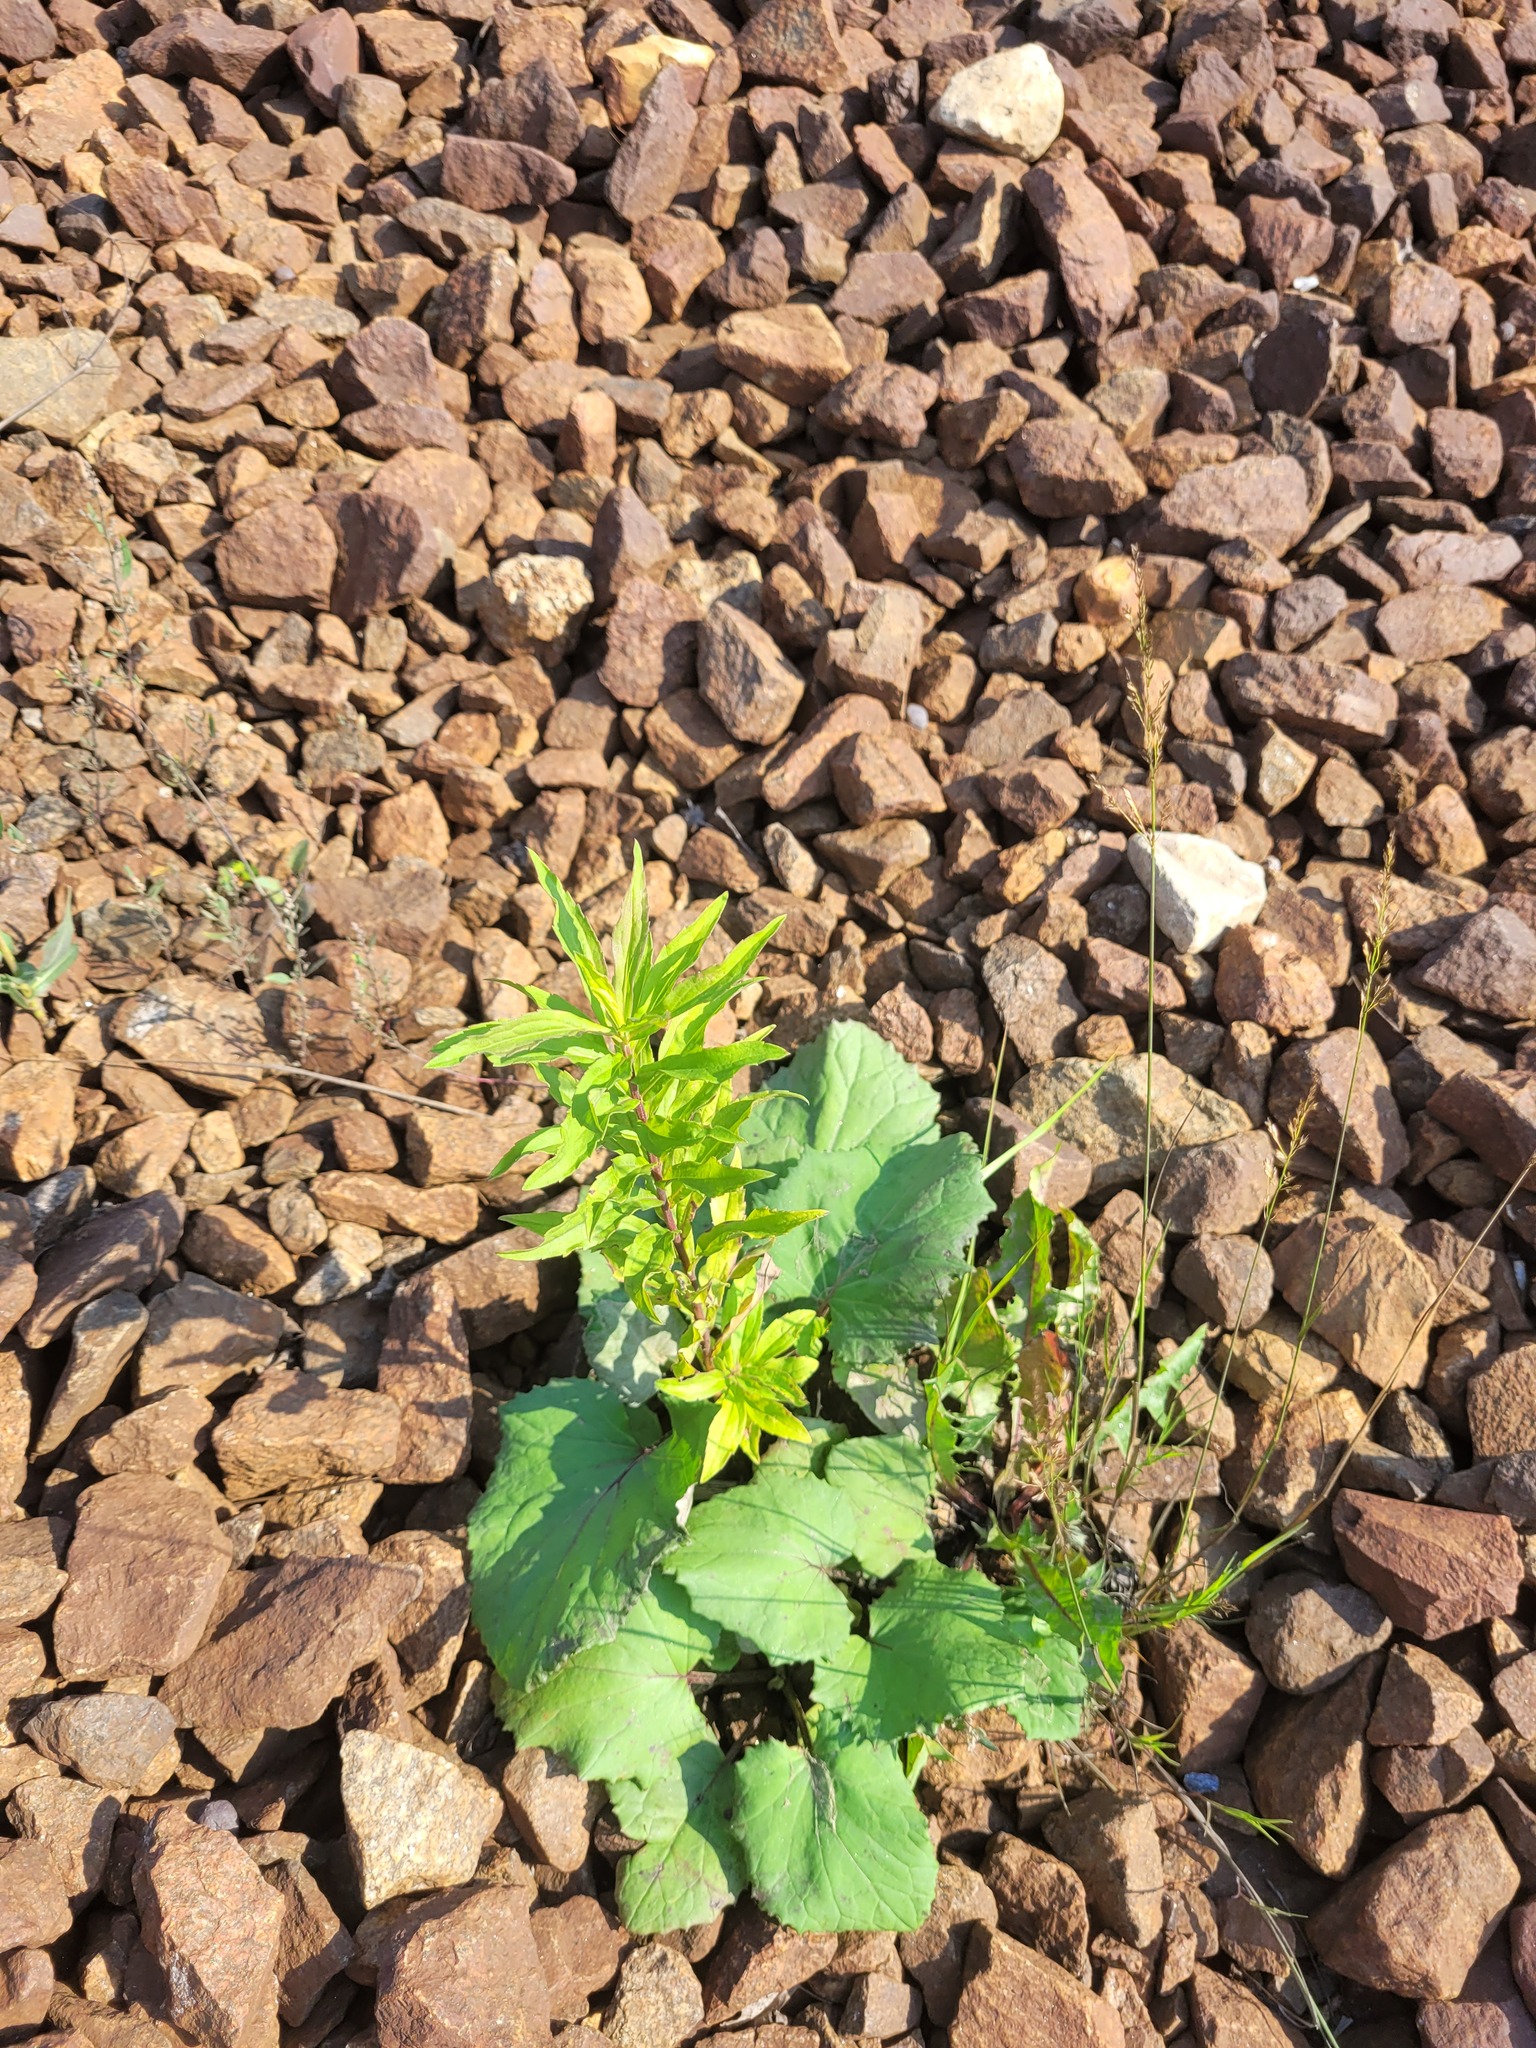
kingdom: Plantae
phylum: Tracheophyta
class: Magnoliopsida
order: Asterales
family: Asteraceae
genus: Solidago
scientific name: Solidago canadensis
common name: Canada goldenrod
